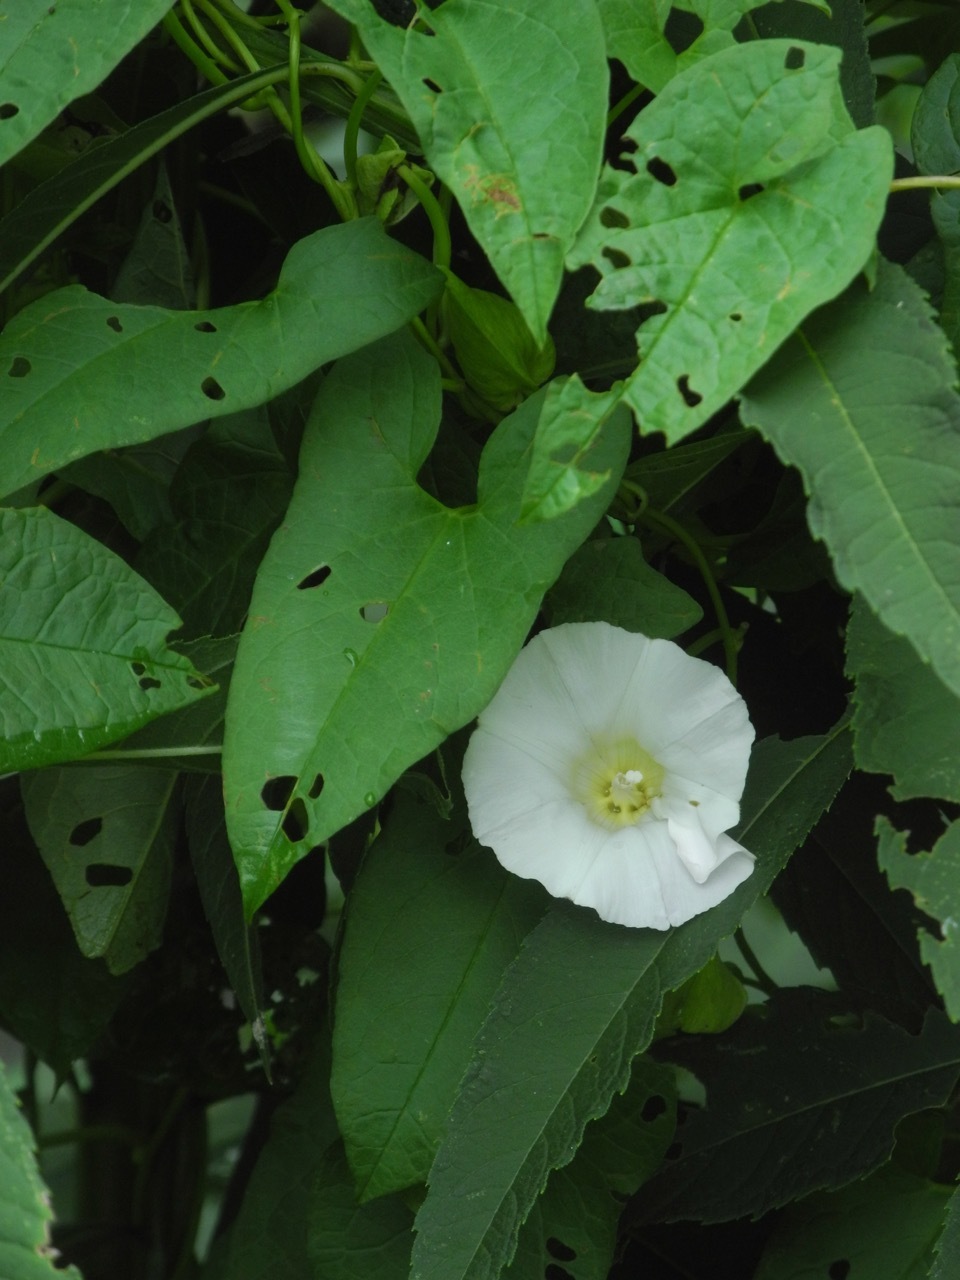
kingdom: Plantae
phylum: Tracheophyta
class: Magnoliopsida
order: Solanales
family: Convolvulaceae
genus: Calystegia
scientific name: Calystegia silvatica
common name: Large bindweed
